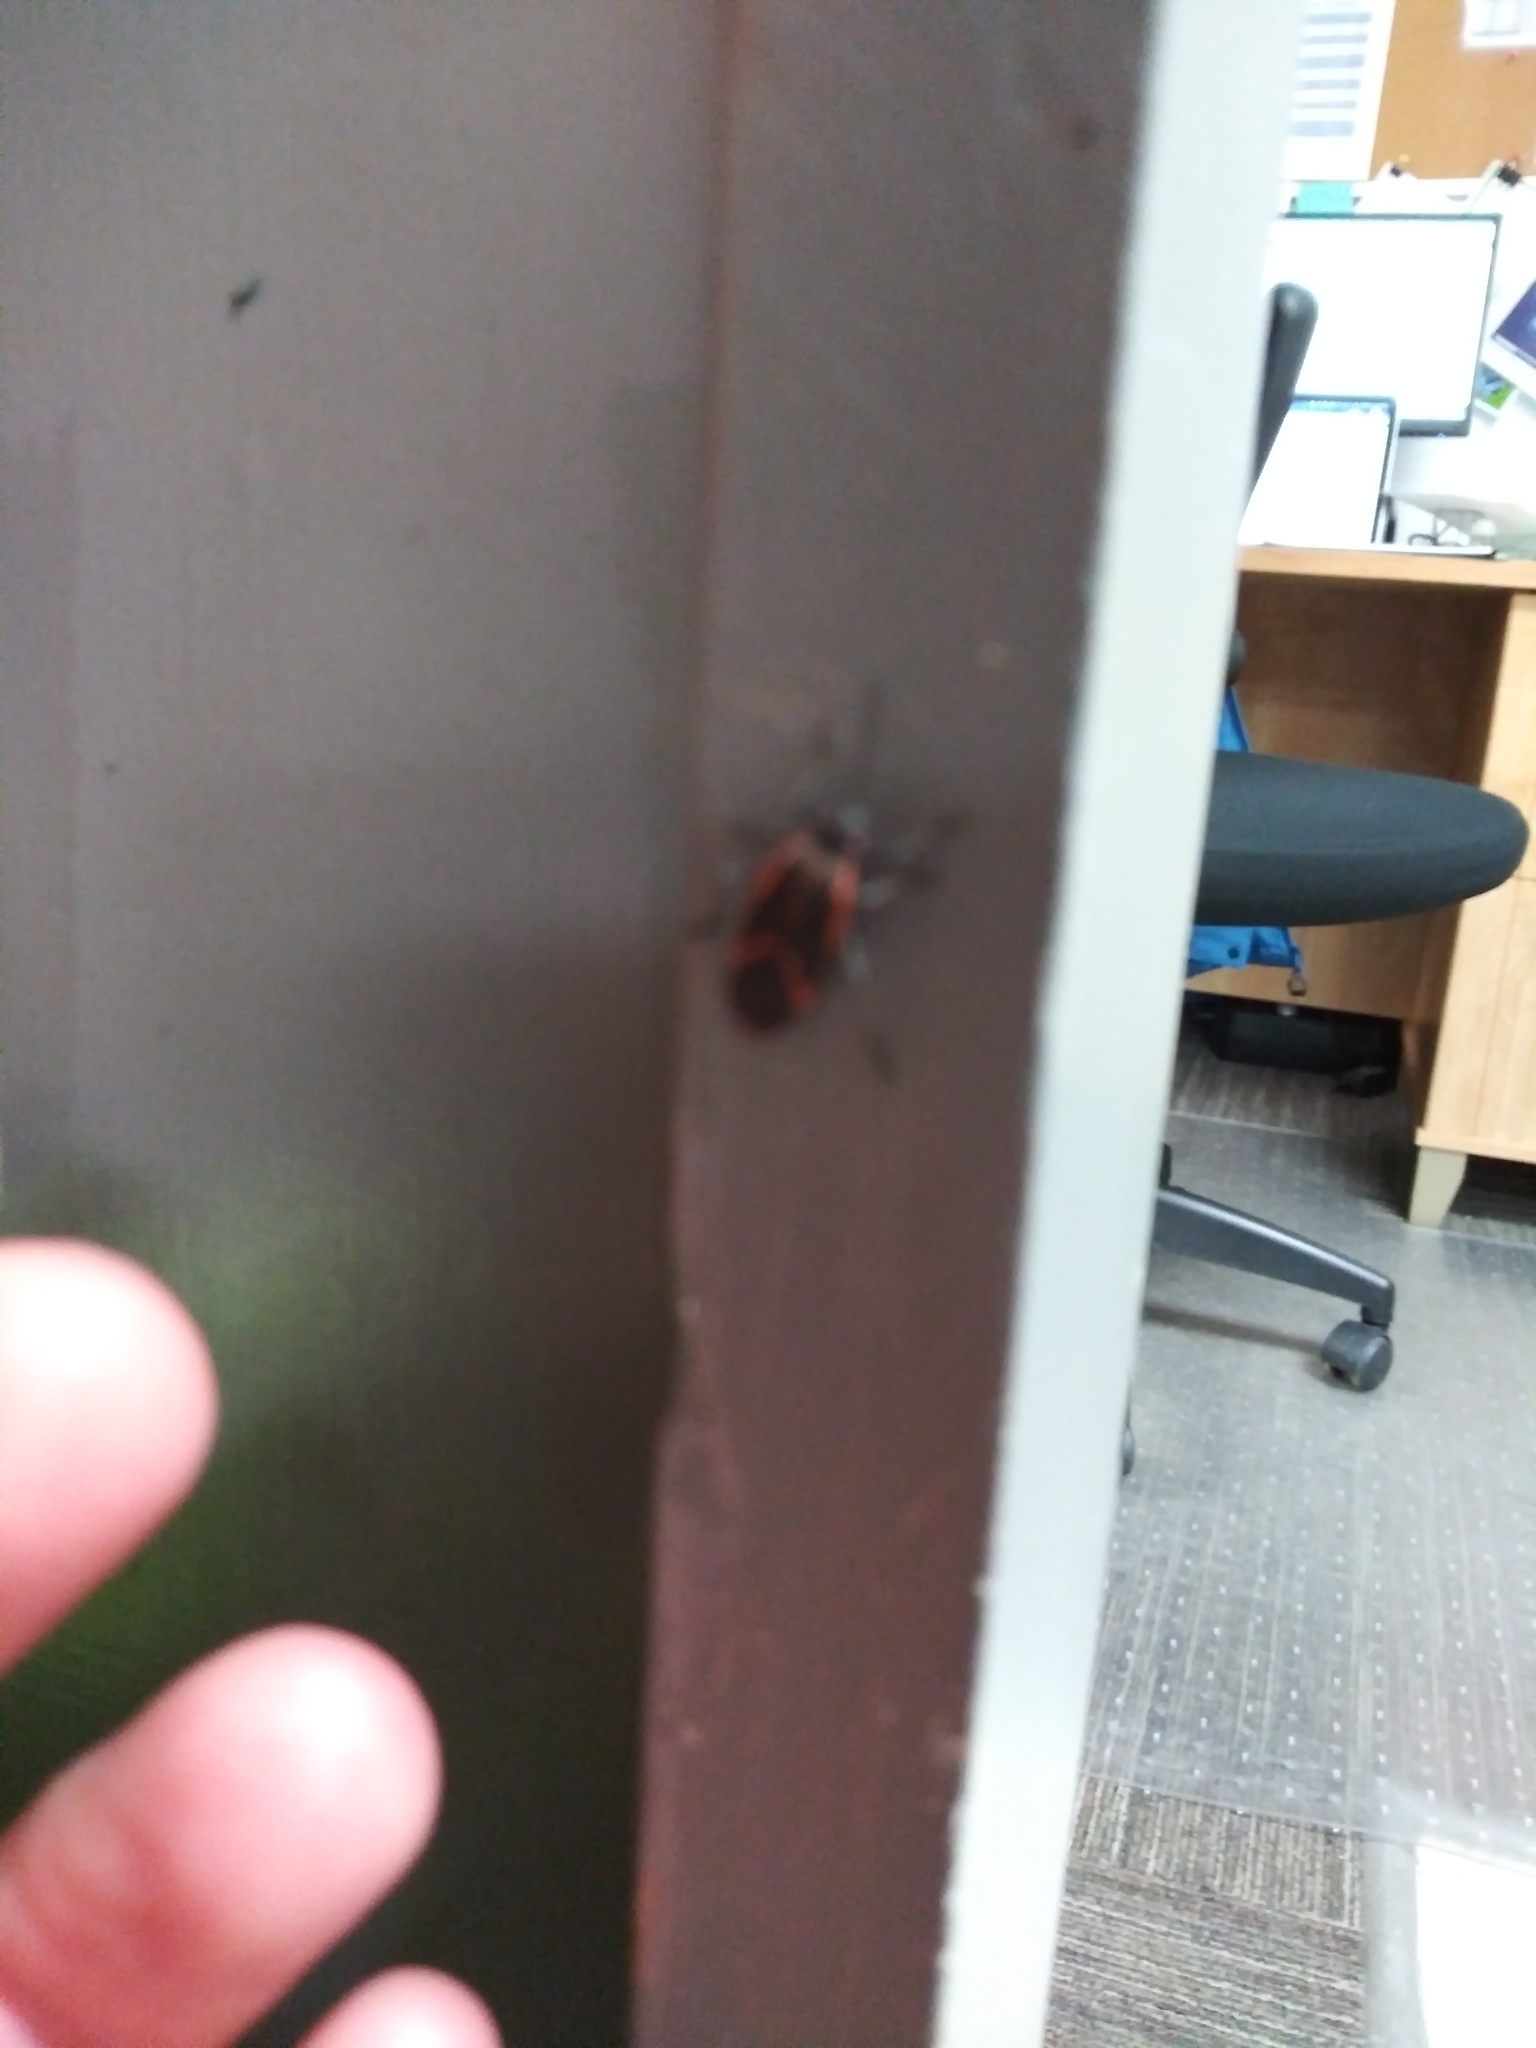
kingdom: Animalia
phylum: Arthropoda
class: Insecta
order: Hemiptera
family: Rhopalidae
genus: Boisea
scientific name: Boisea trivittata
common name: Boxelder bug
